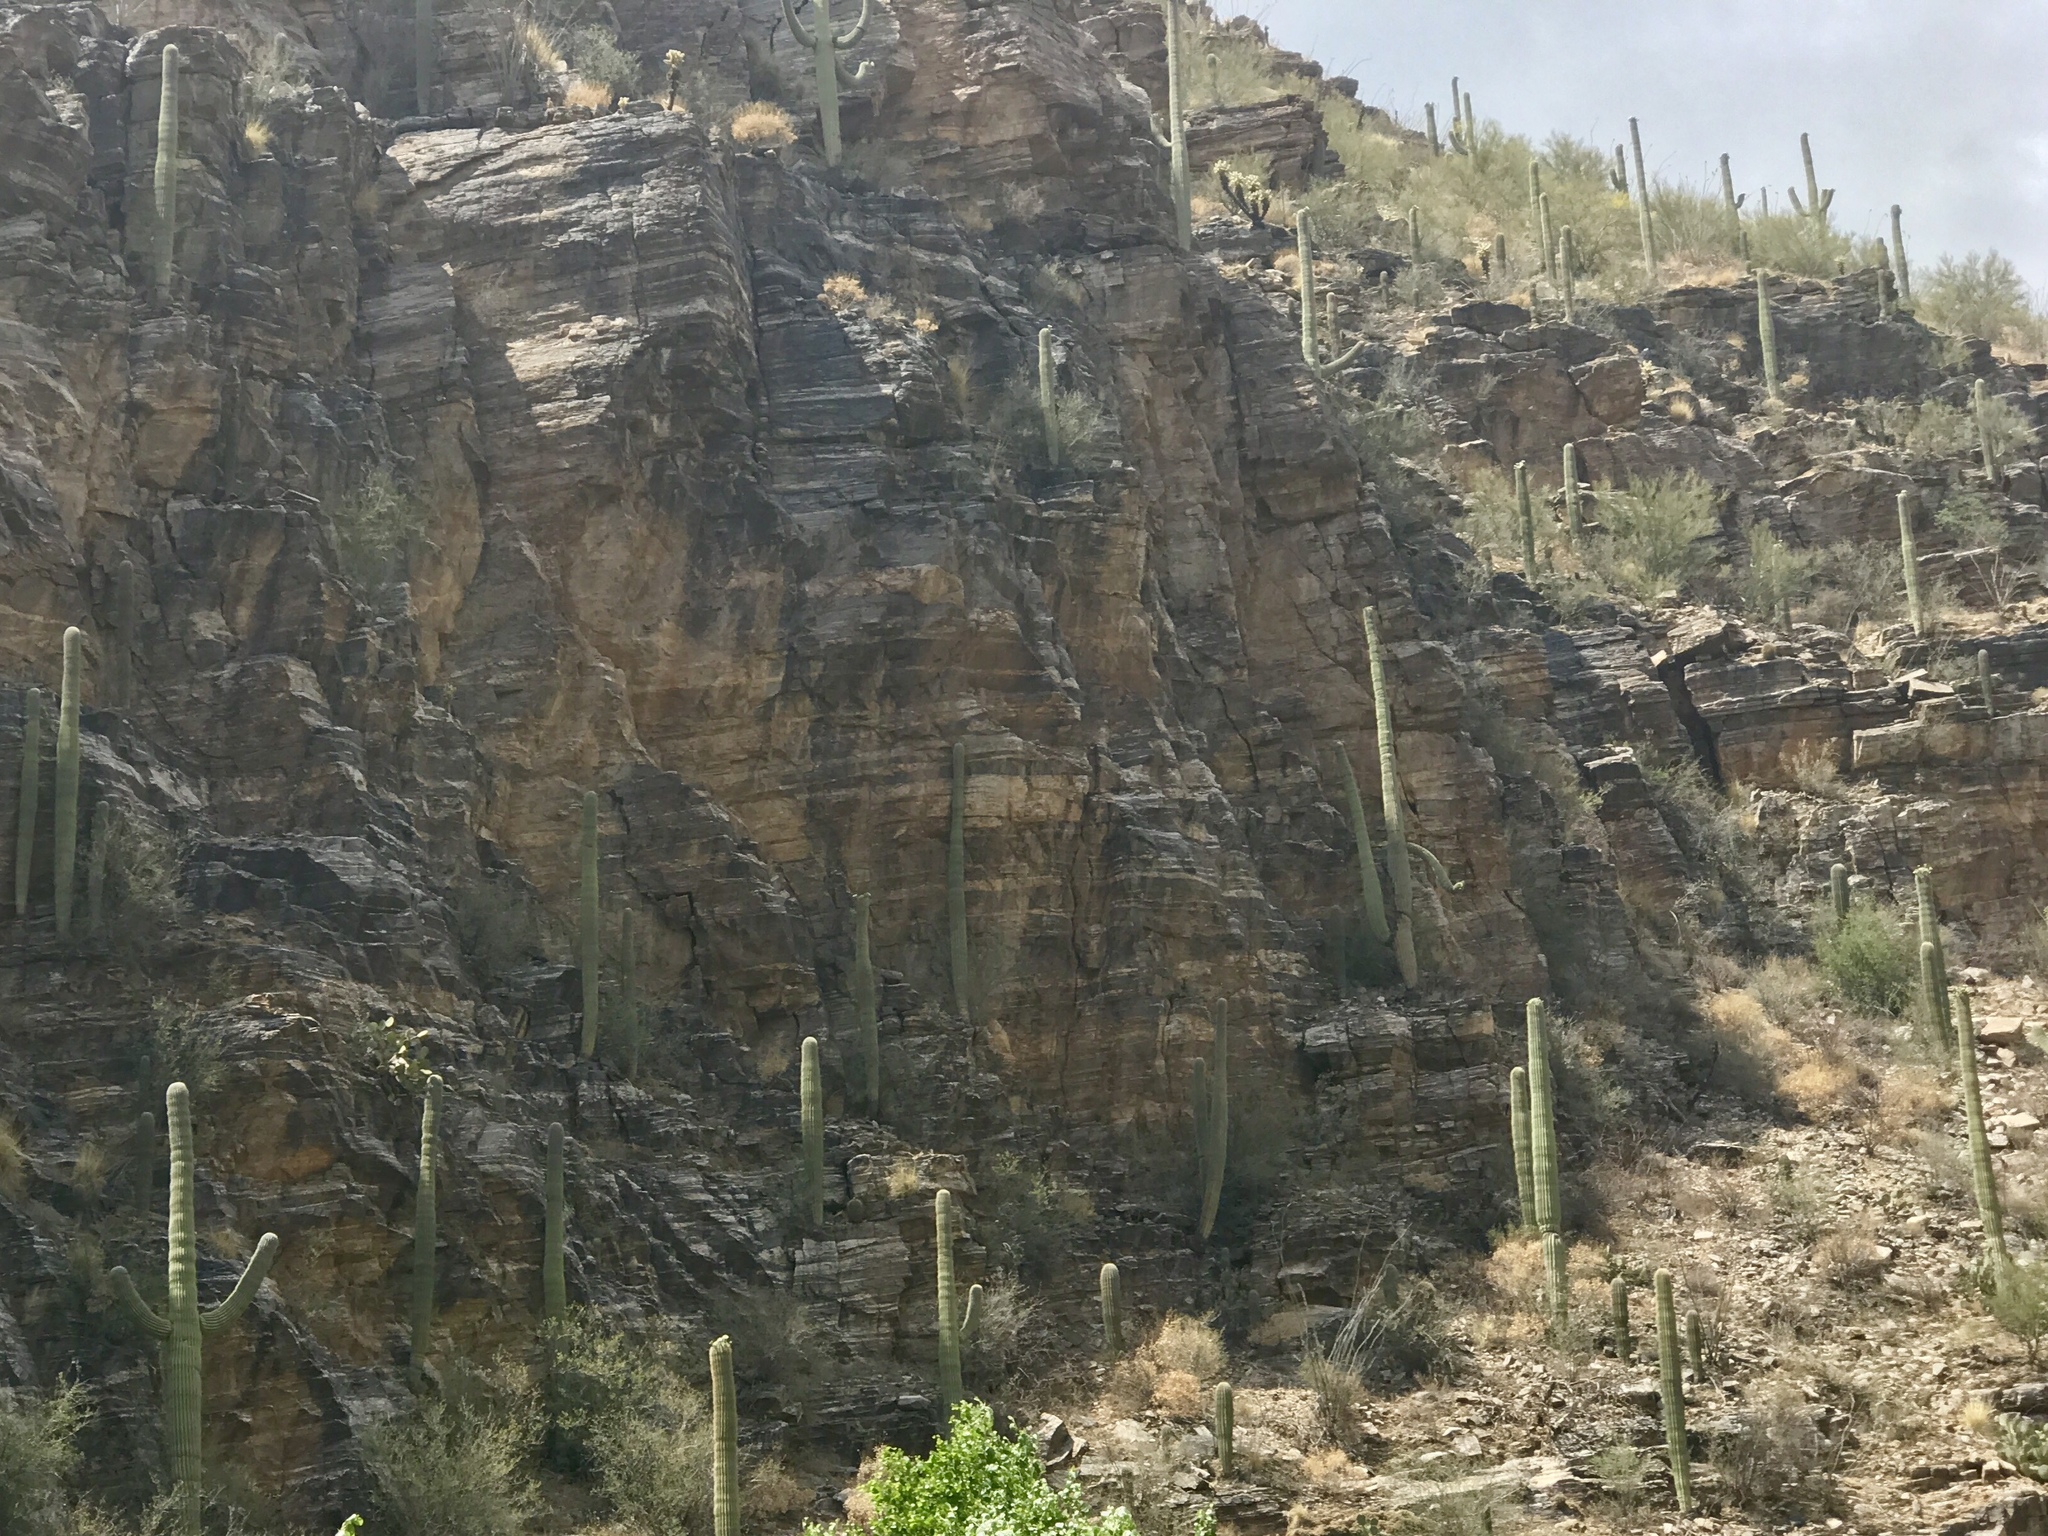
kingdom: Plantae
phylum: Tracheophyta
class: Magnoliopsida
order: Caryophyllales
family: Cactaceae
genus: Carnegiea
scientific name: Carnegiea gigantea
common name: Saguaro
